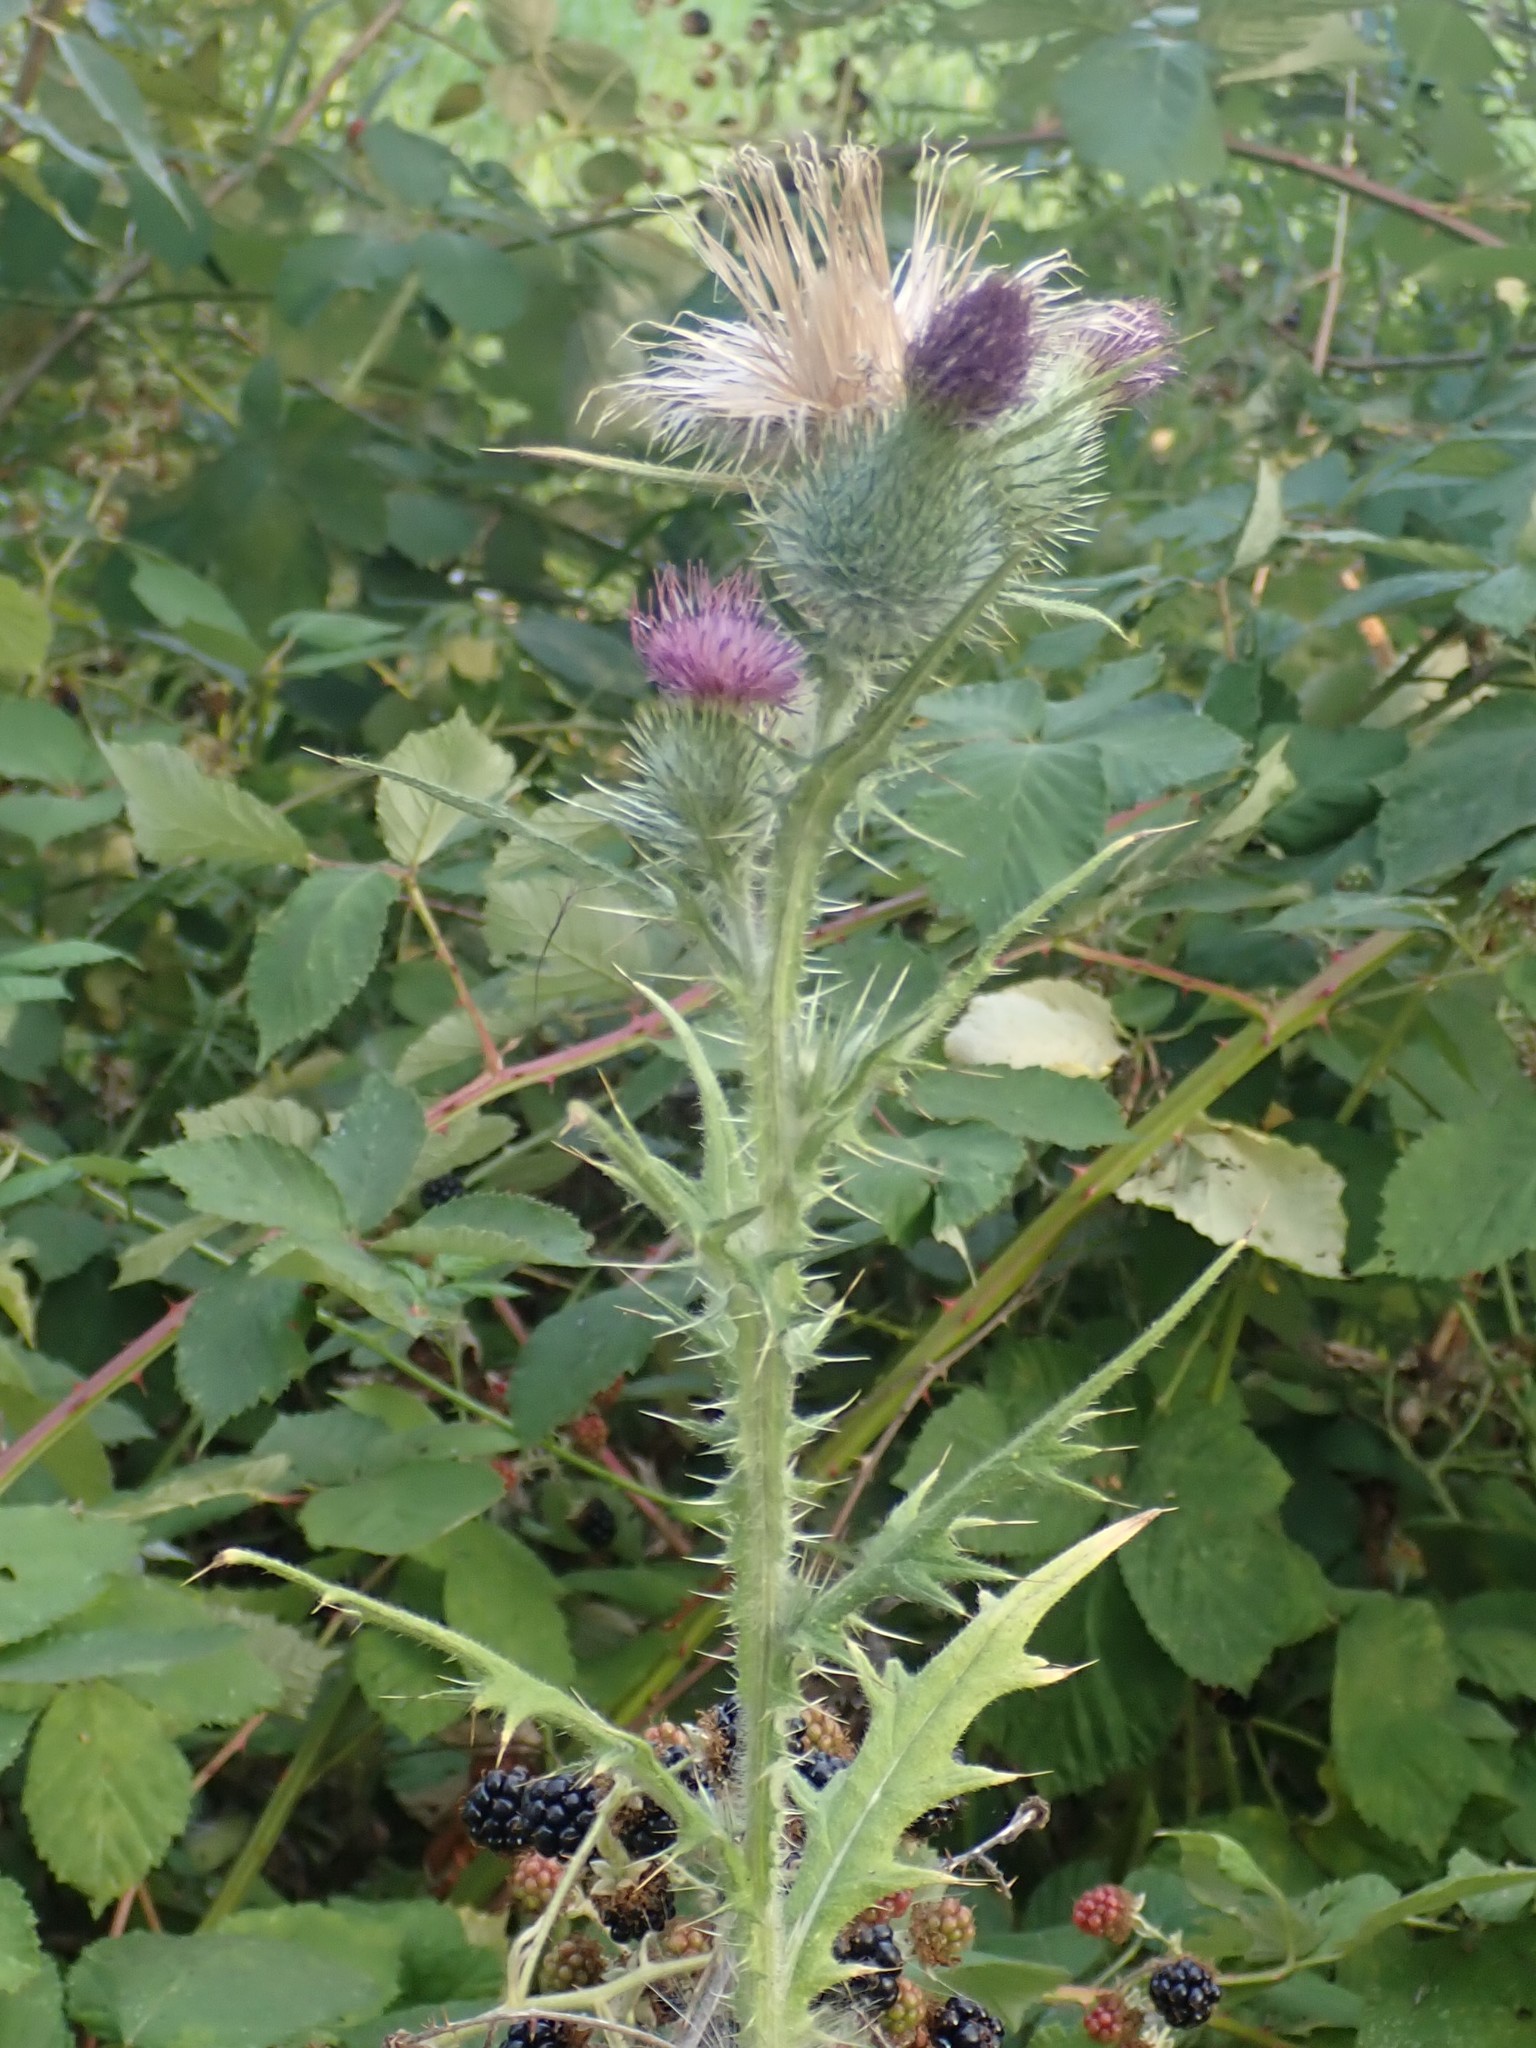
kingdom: Plantae
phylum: Tracheophyta
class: Magnoliopsida
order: Asterales
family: Asteraceae
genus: Cirsium
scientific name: Cirsium vulgare
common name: Bull thistle
